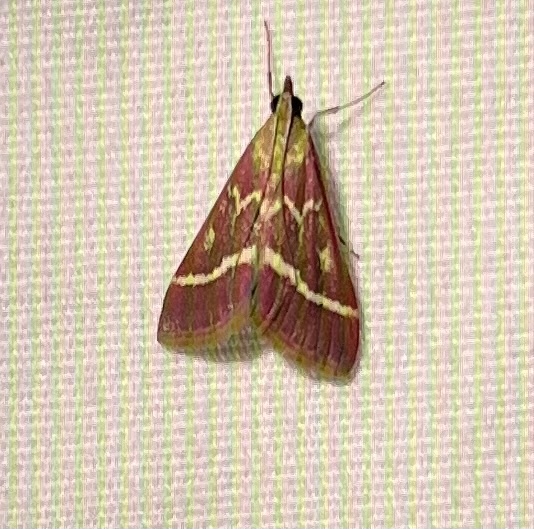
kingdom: Animalia
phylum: Arthropoda
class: Insecta
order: Lepidoptera
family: Crambidae
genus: Pyrausta
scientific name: Pyrausta volupialis
